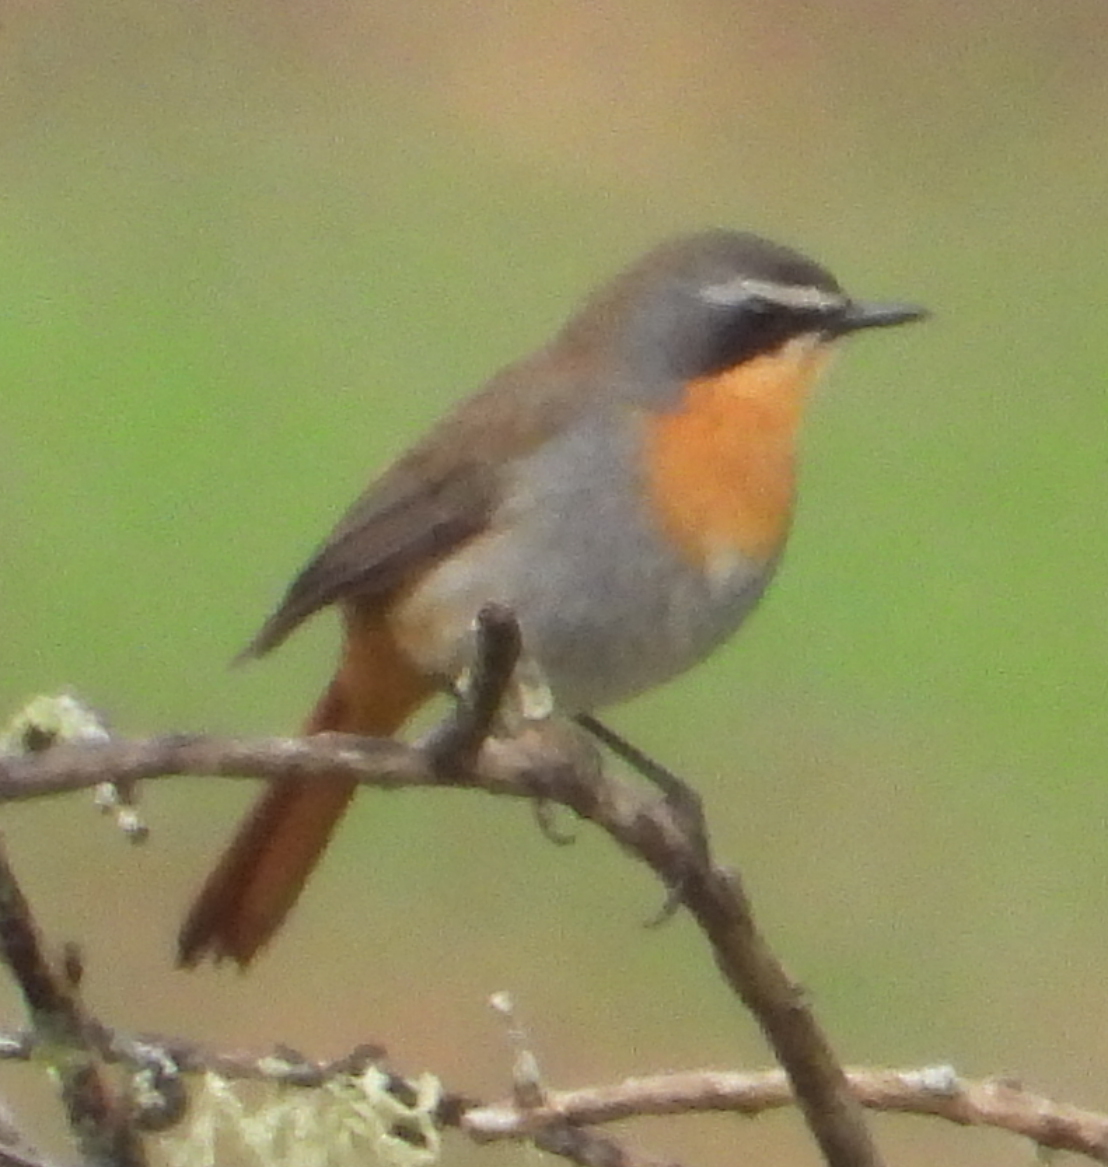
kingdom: Animalia
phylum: Chordata
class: Aves
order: Passeriformes
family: Muscicapidae
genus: Cossypha
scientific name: Cossypha caffra
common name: Cape robin-chat
